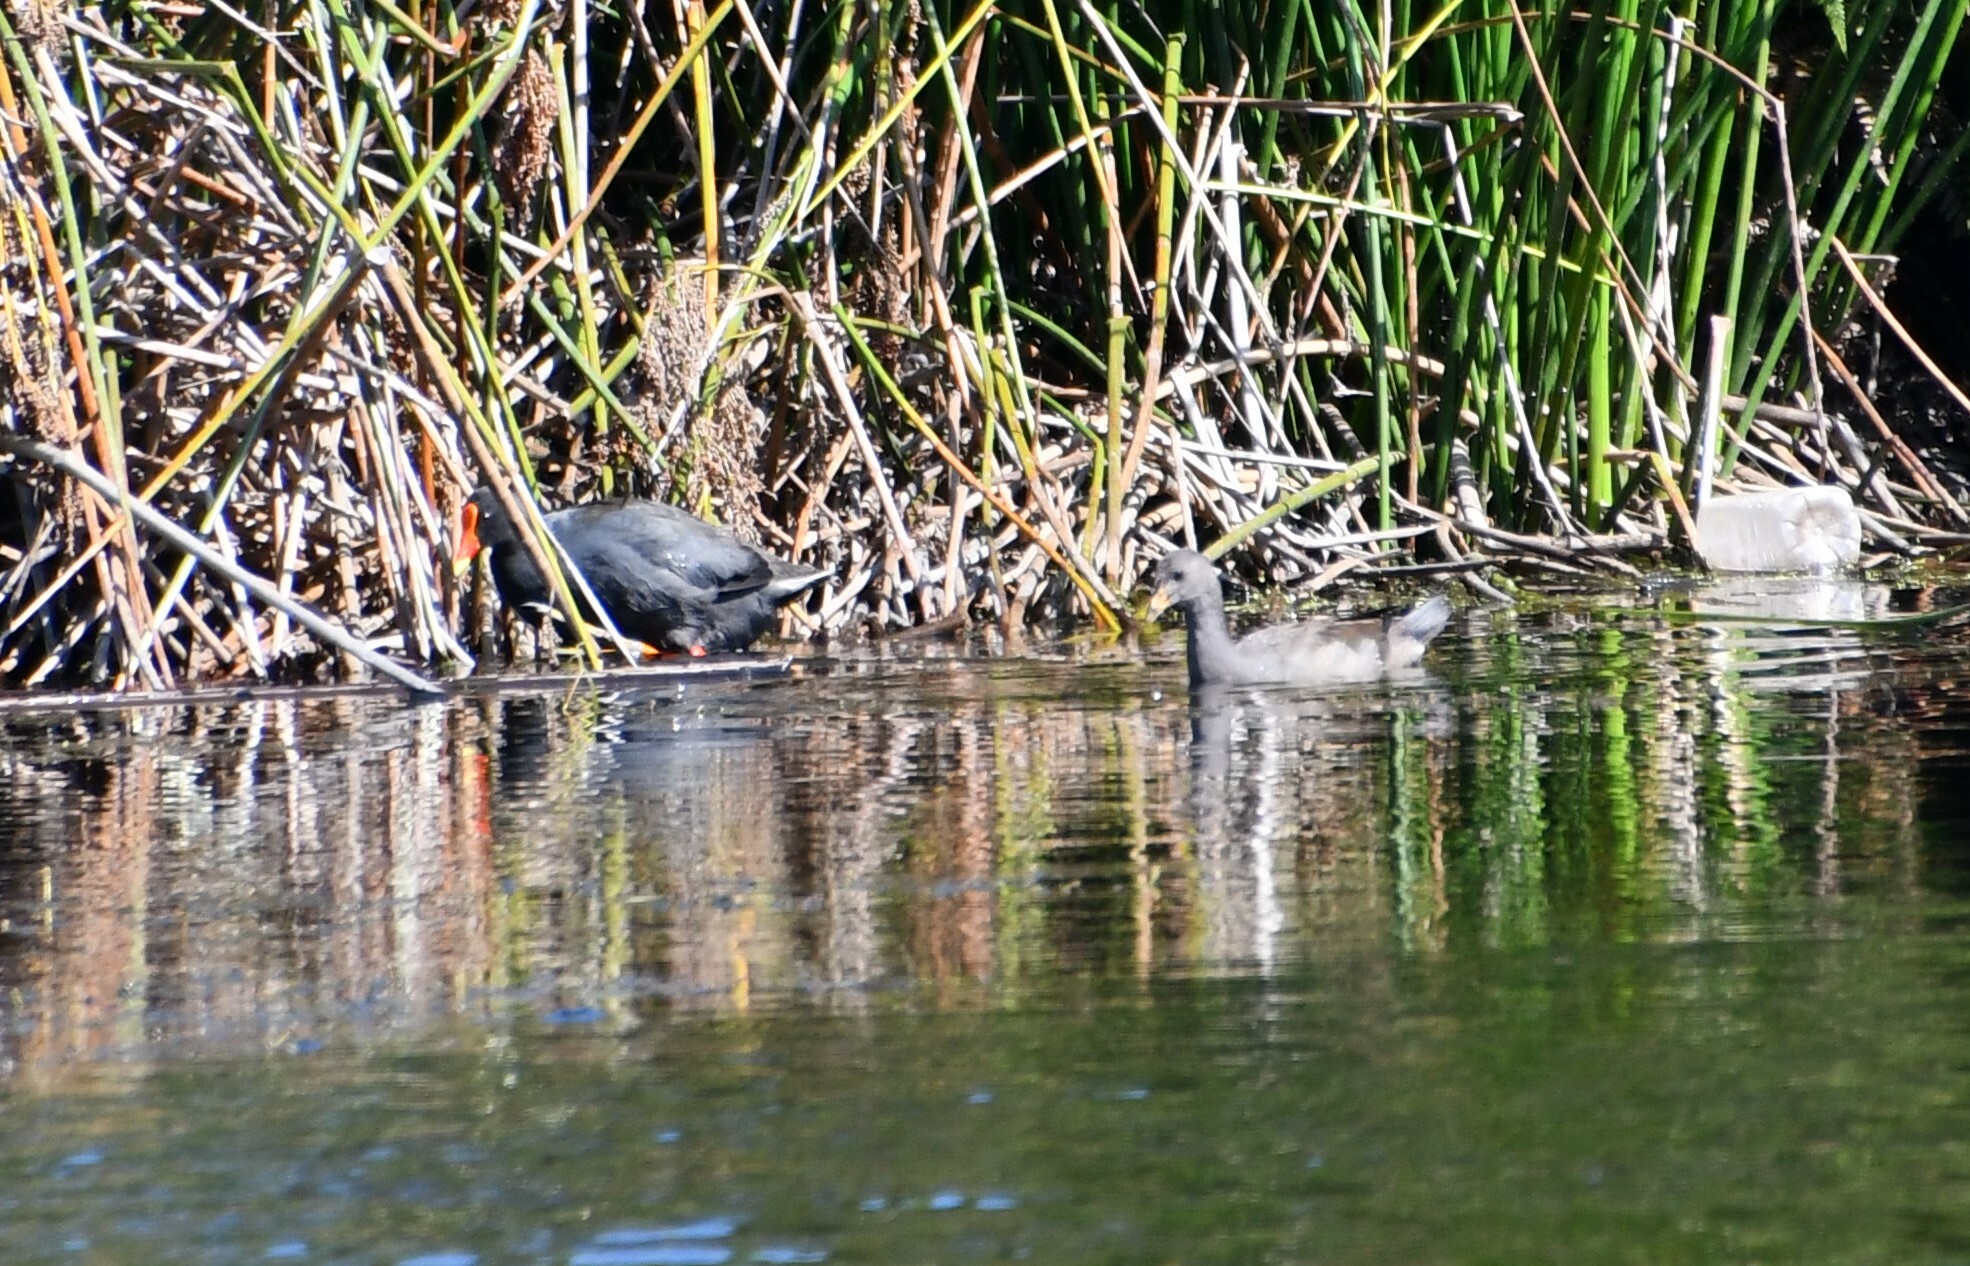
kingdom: Animalia
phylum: Chordata
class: Aves
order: Gruiformes
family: Rallidae
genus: Gallinula
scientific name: Gallinula tenebrosa
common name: Dusky moorhen
